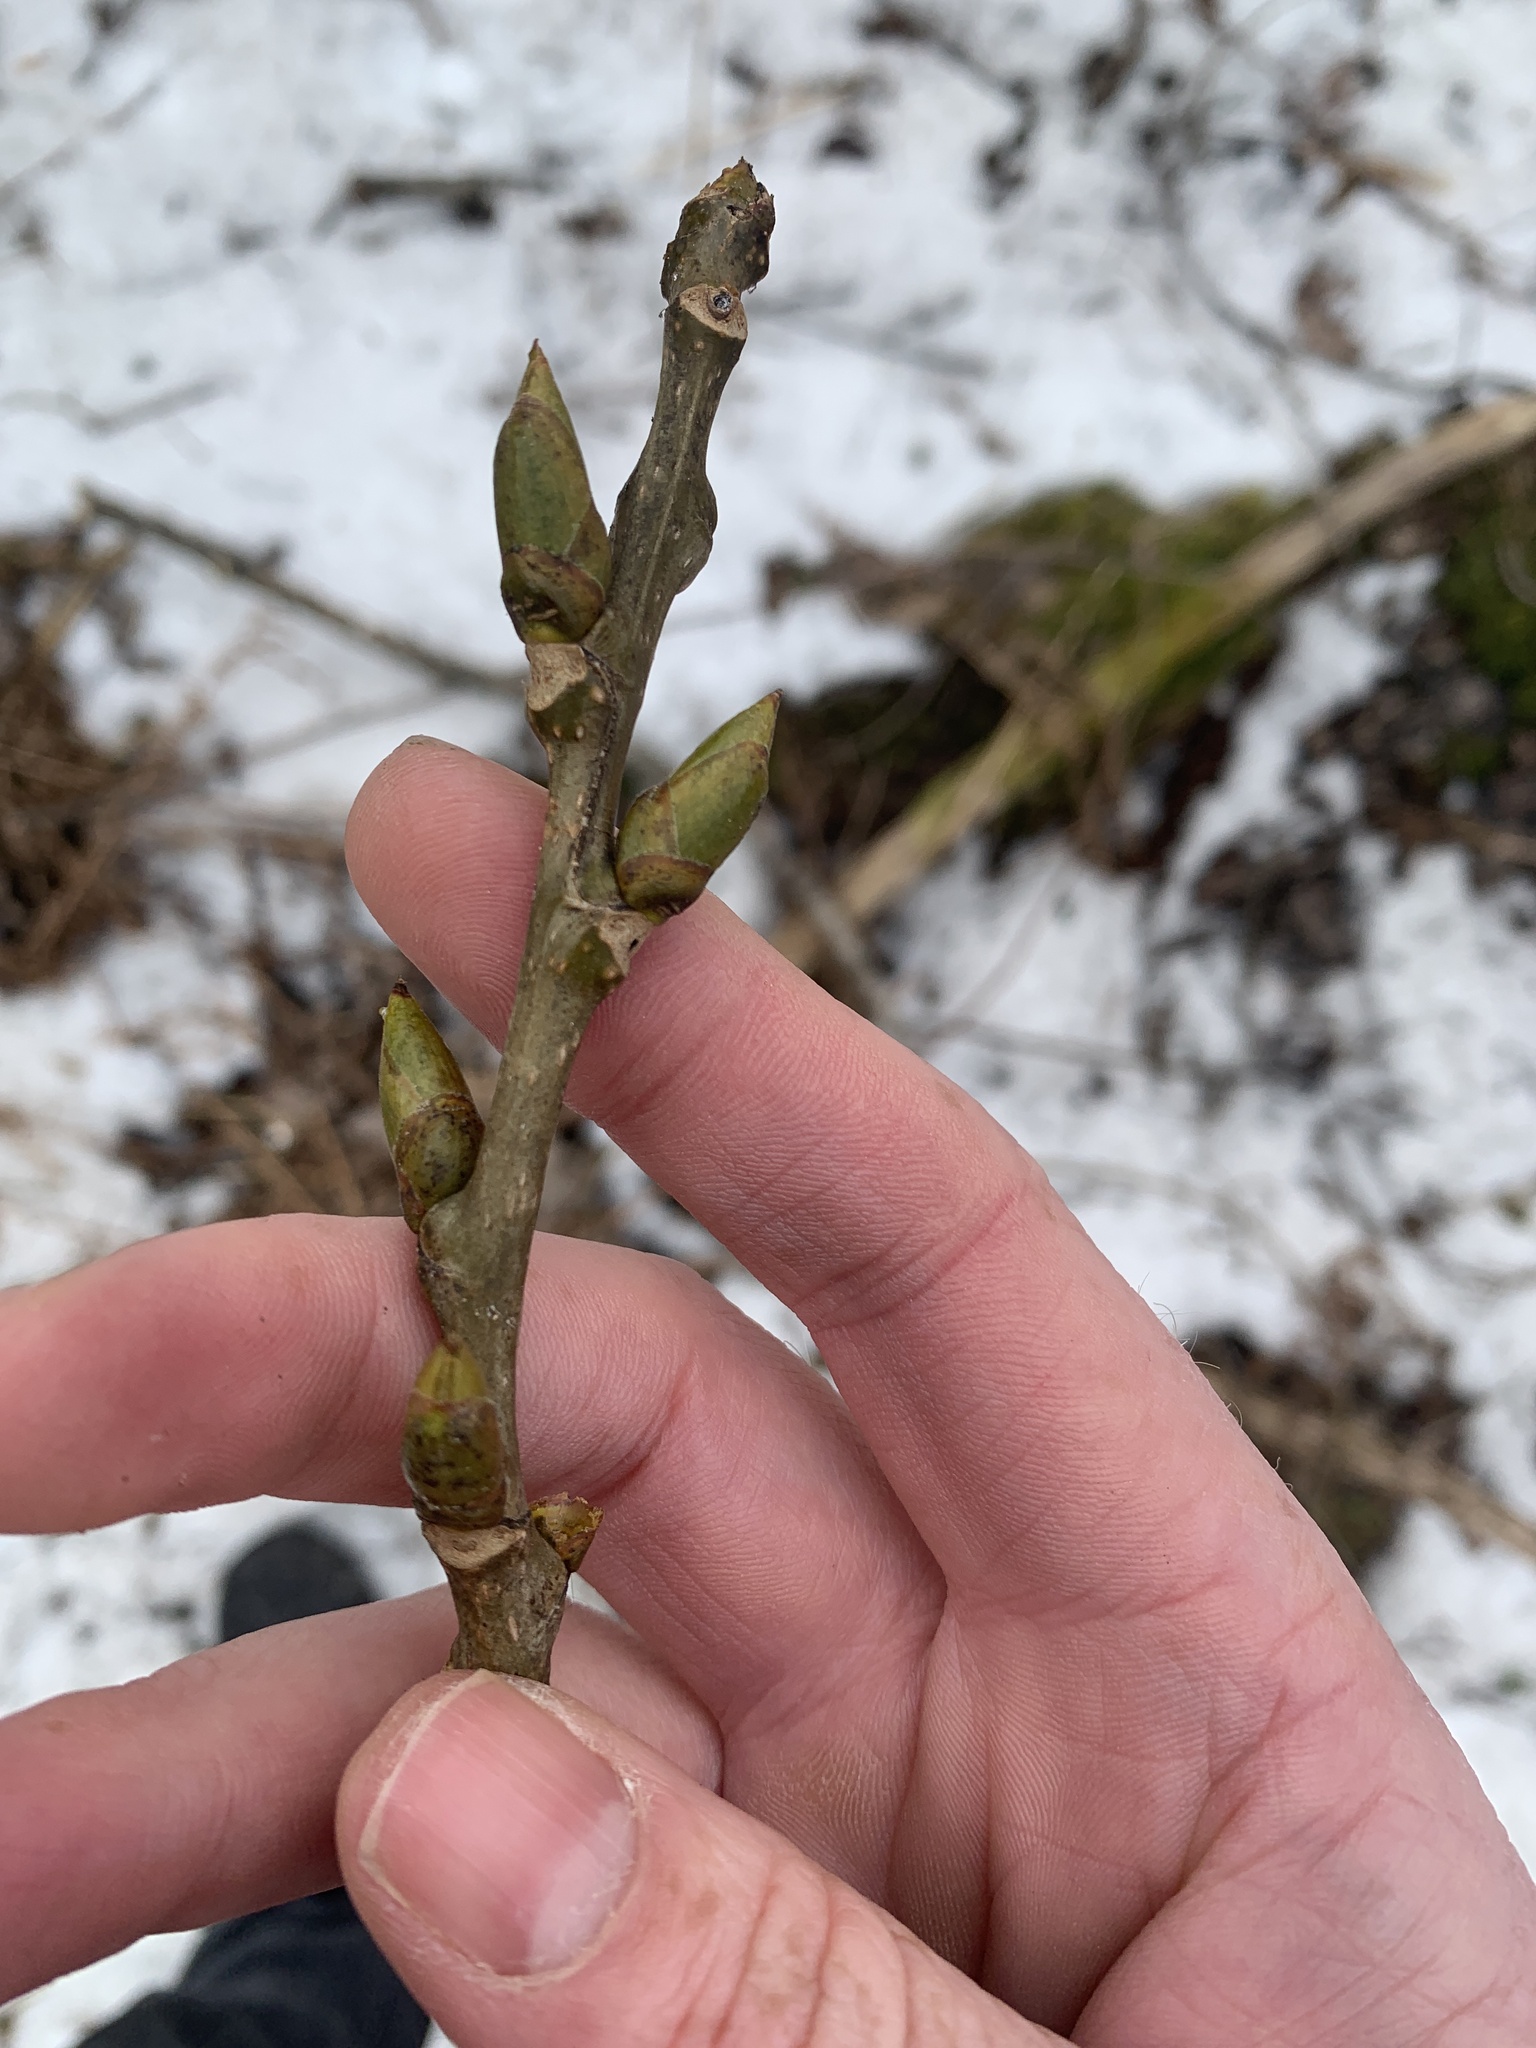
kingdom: Plantae
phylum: Tracheophyta
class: Magnoliopsida
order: Malpighiales
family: Salicaceae
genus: Populus
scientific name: Populus deltoides
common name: Eastern cottonwood
